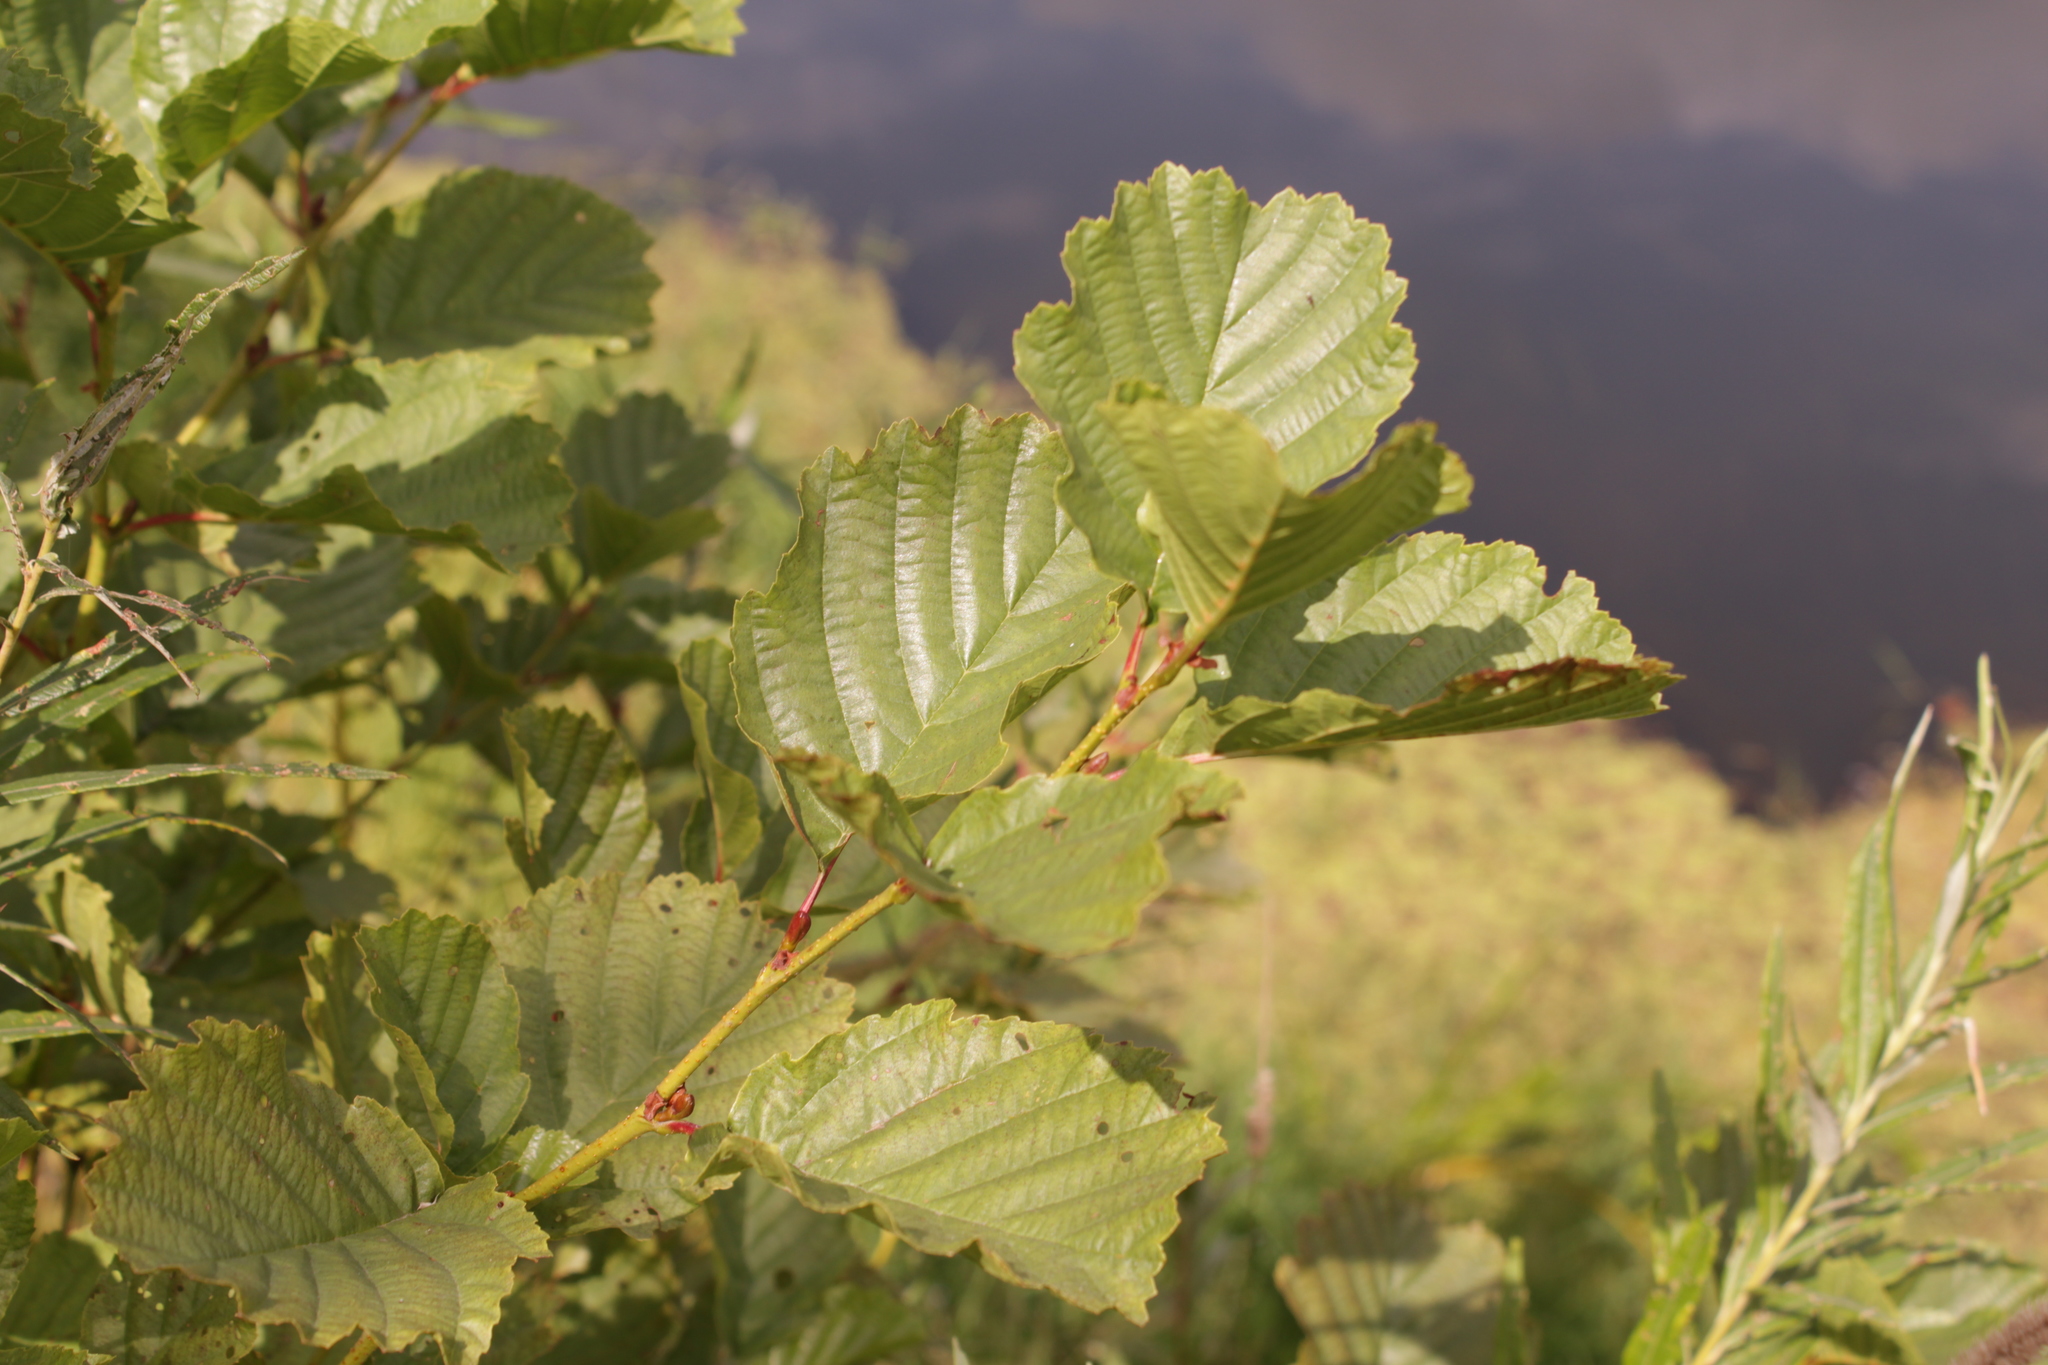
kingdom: Plantae
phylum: Tracheophyta
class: Magnoliopsida
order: Fagales
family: Betulaceae
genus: Alnus
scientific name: Alnus glutinosa
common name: Black alder
